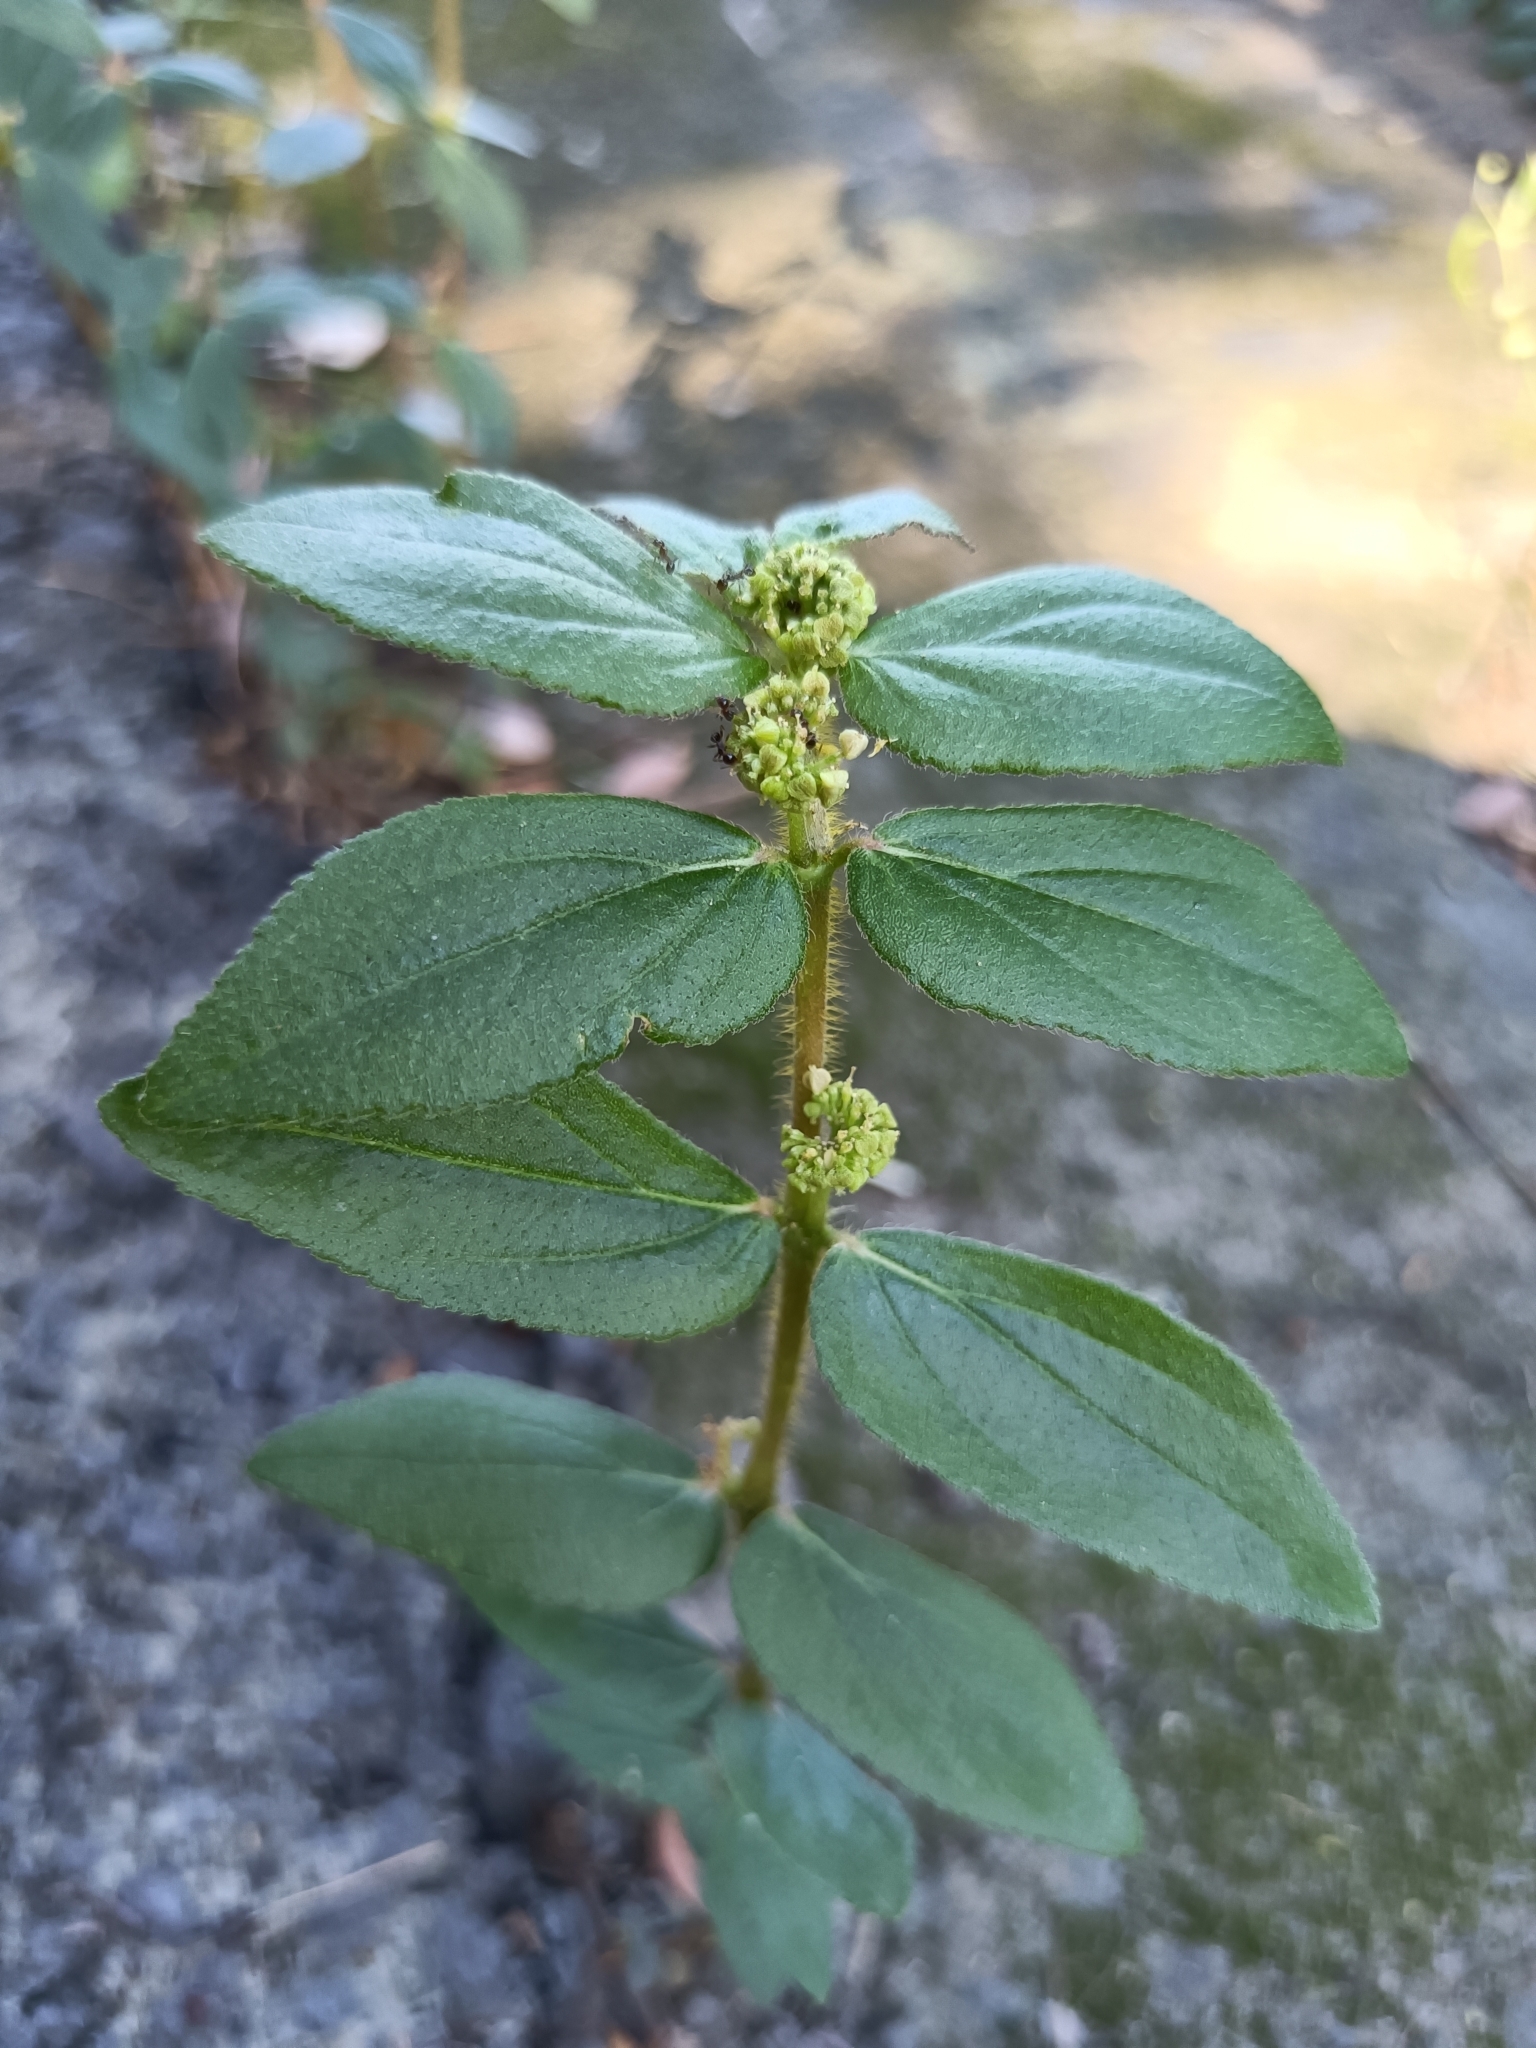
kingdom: Plantae
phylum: Tracheophyta
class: Magnoliopsida
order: Malpighiales
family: Euphorbiaceae
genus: Euphorbia
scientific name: Euphorbia hirta
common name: Pillpod sandmat
